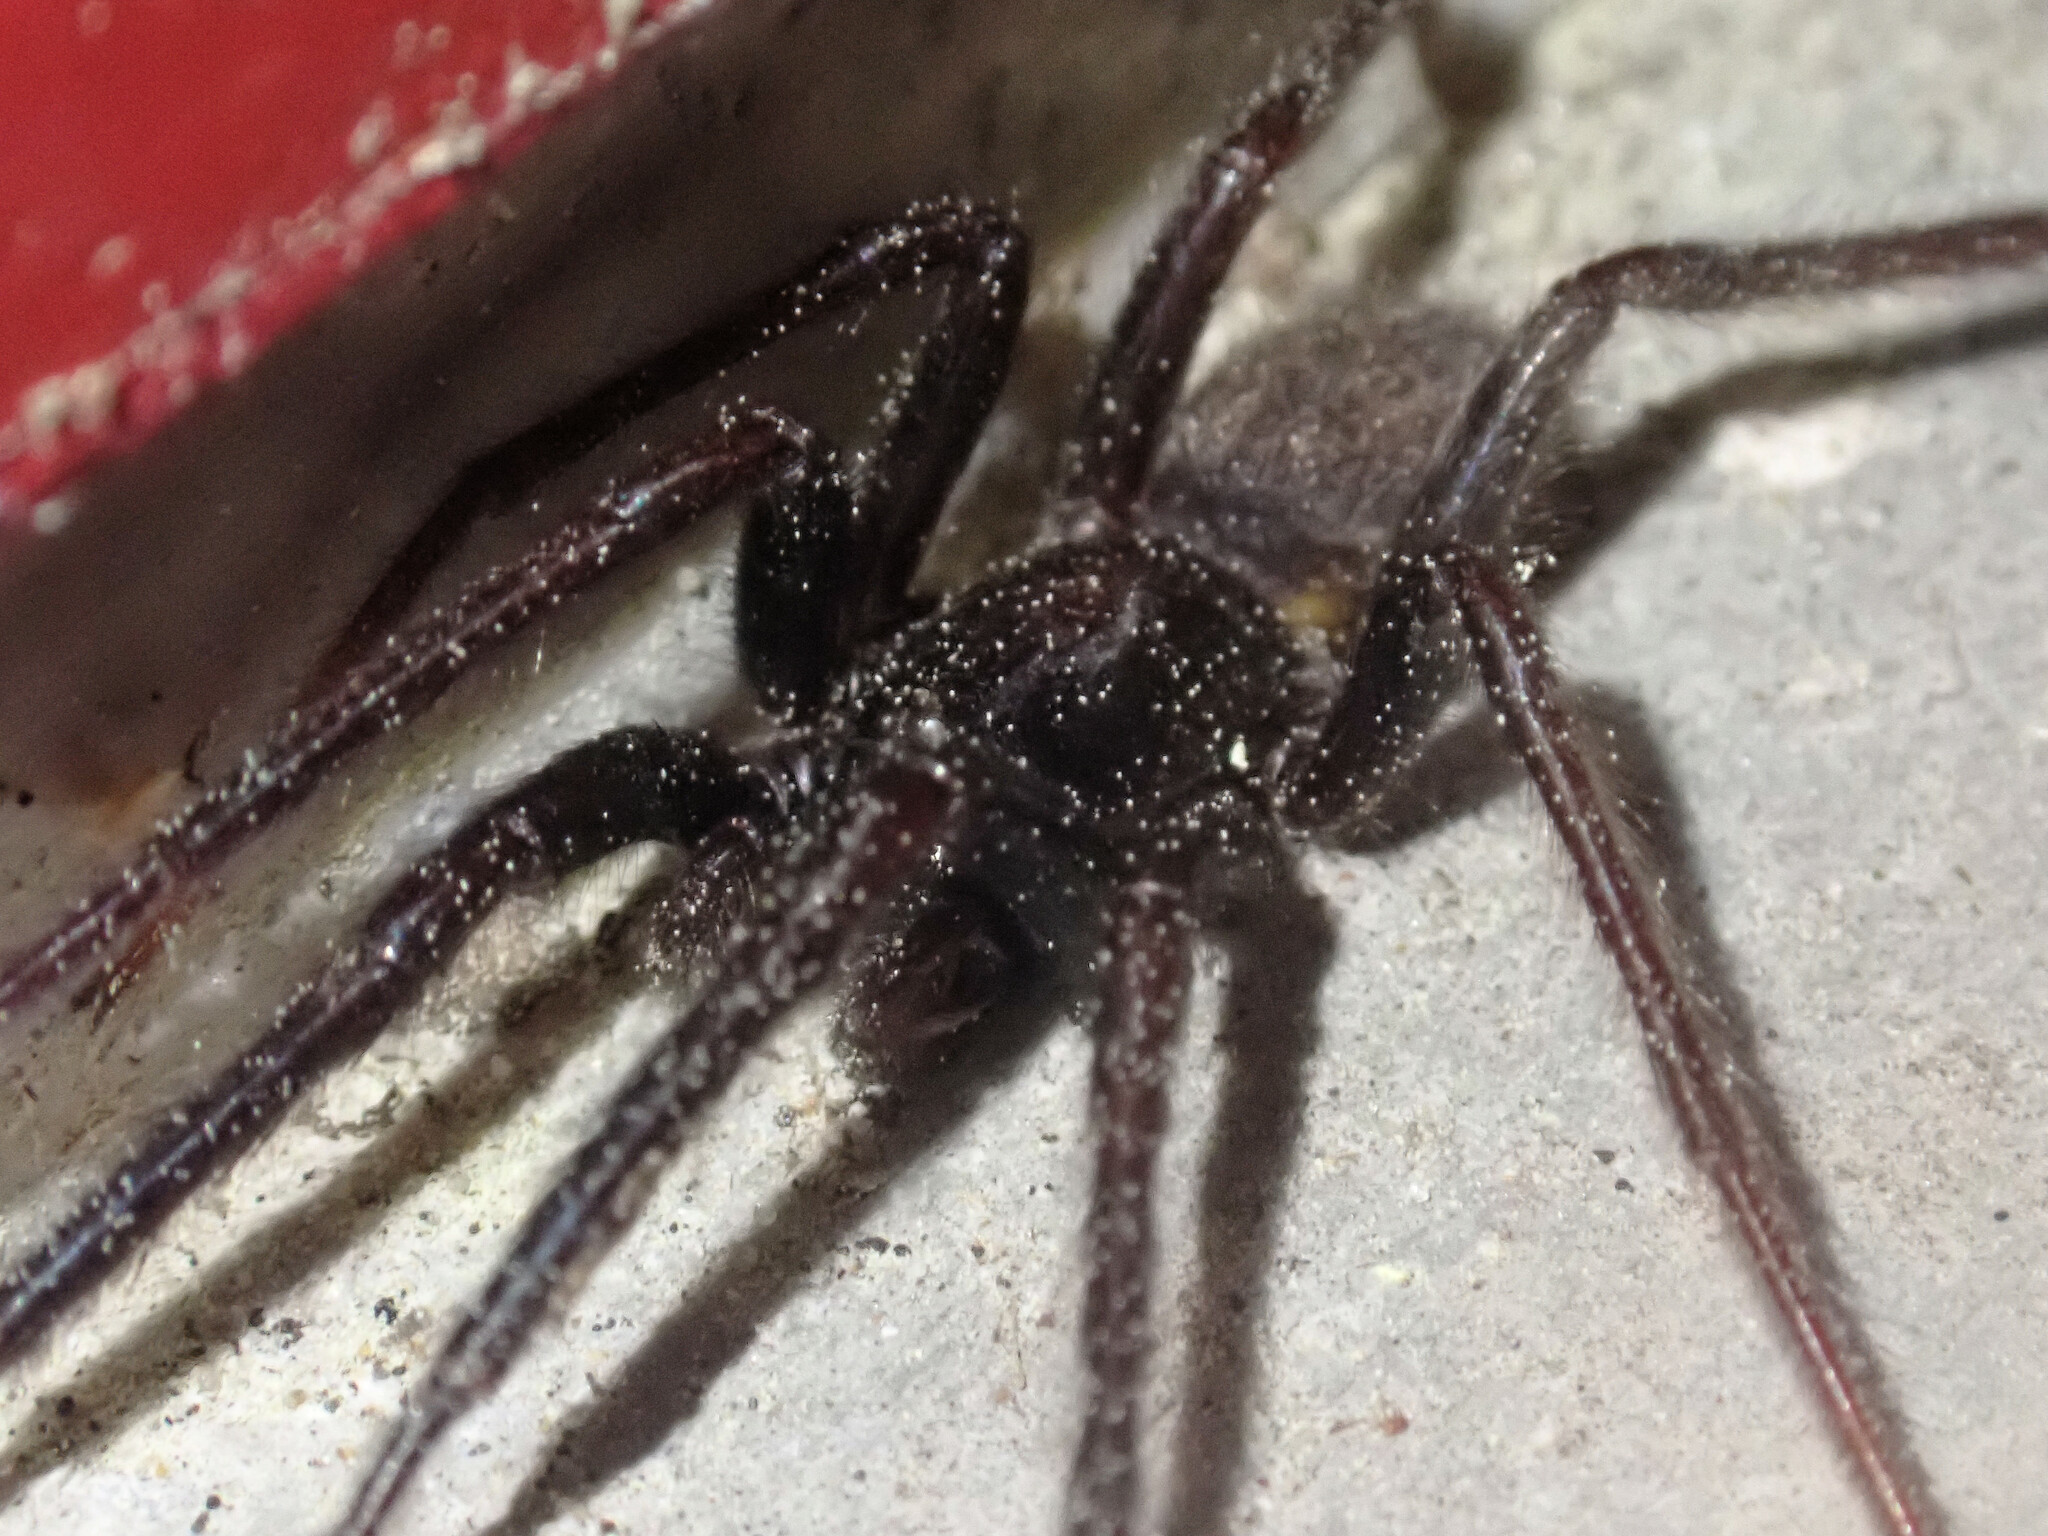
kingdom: Animalia
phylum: Arthropoda
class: Arachnida
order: Araneae
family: Segestriidae
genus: Segestria
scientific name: Segestria florentina
